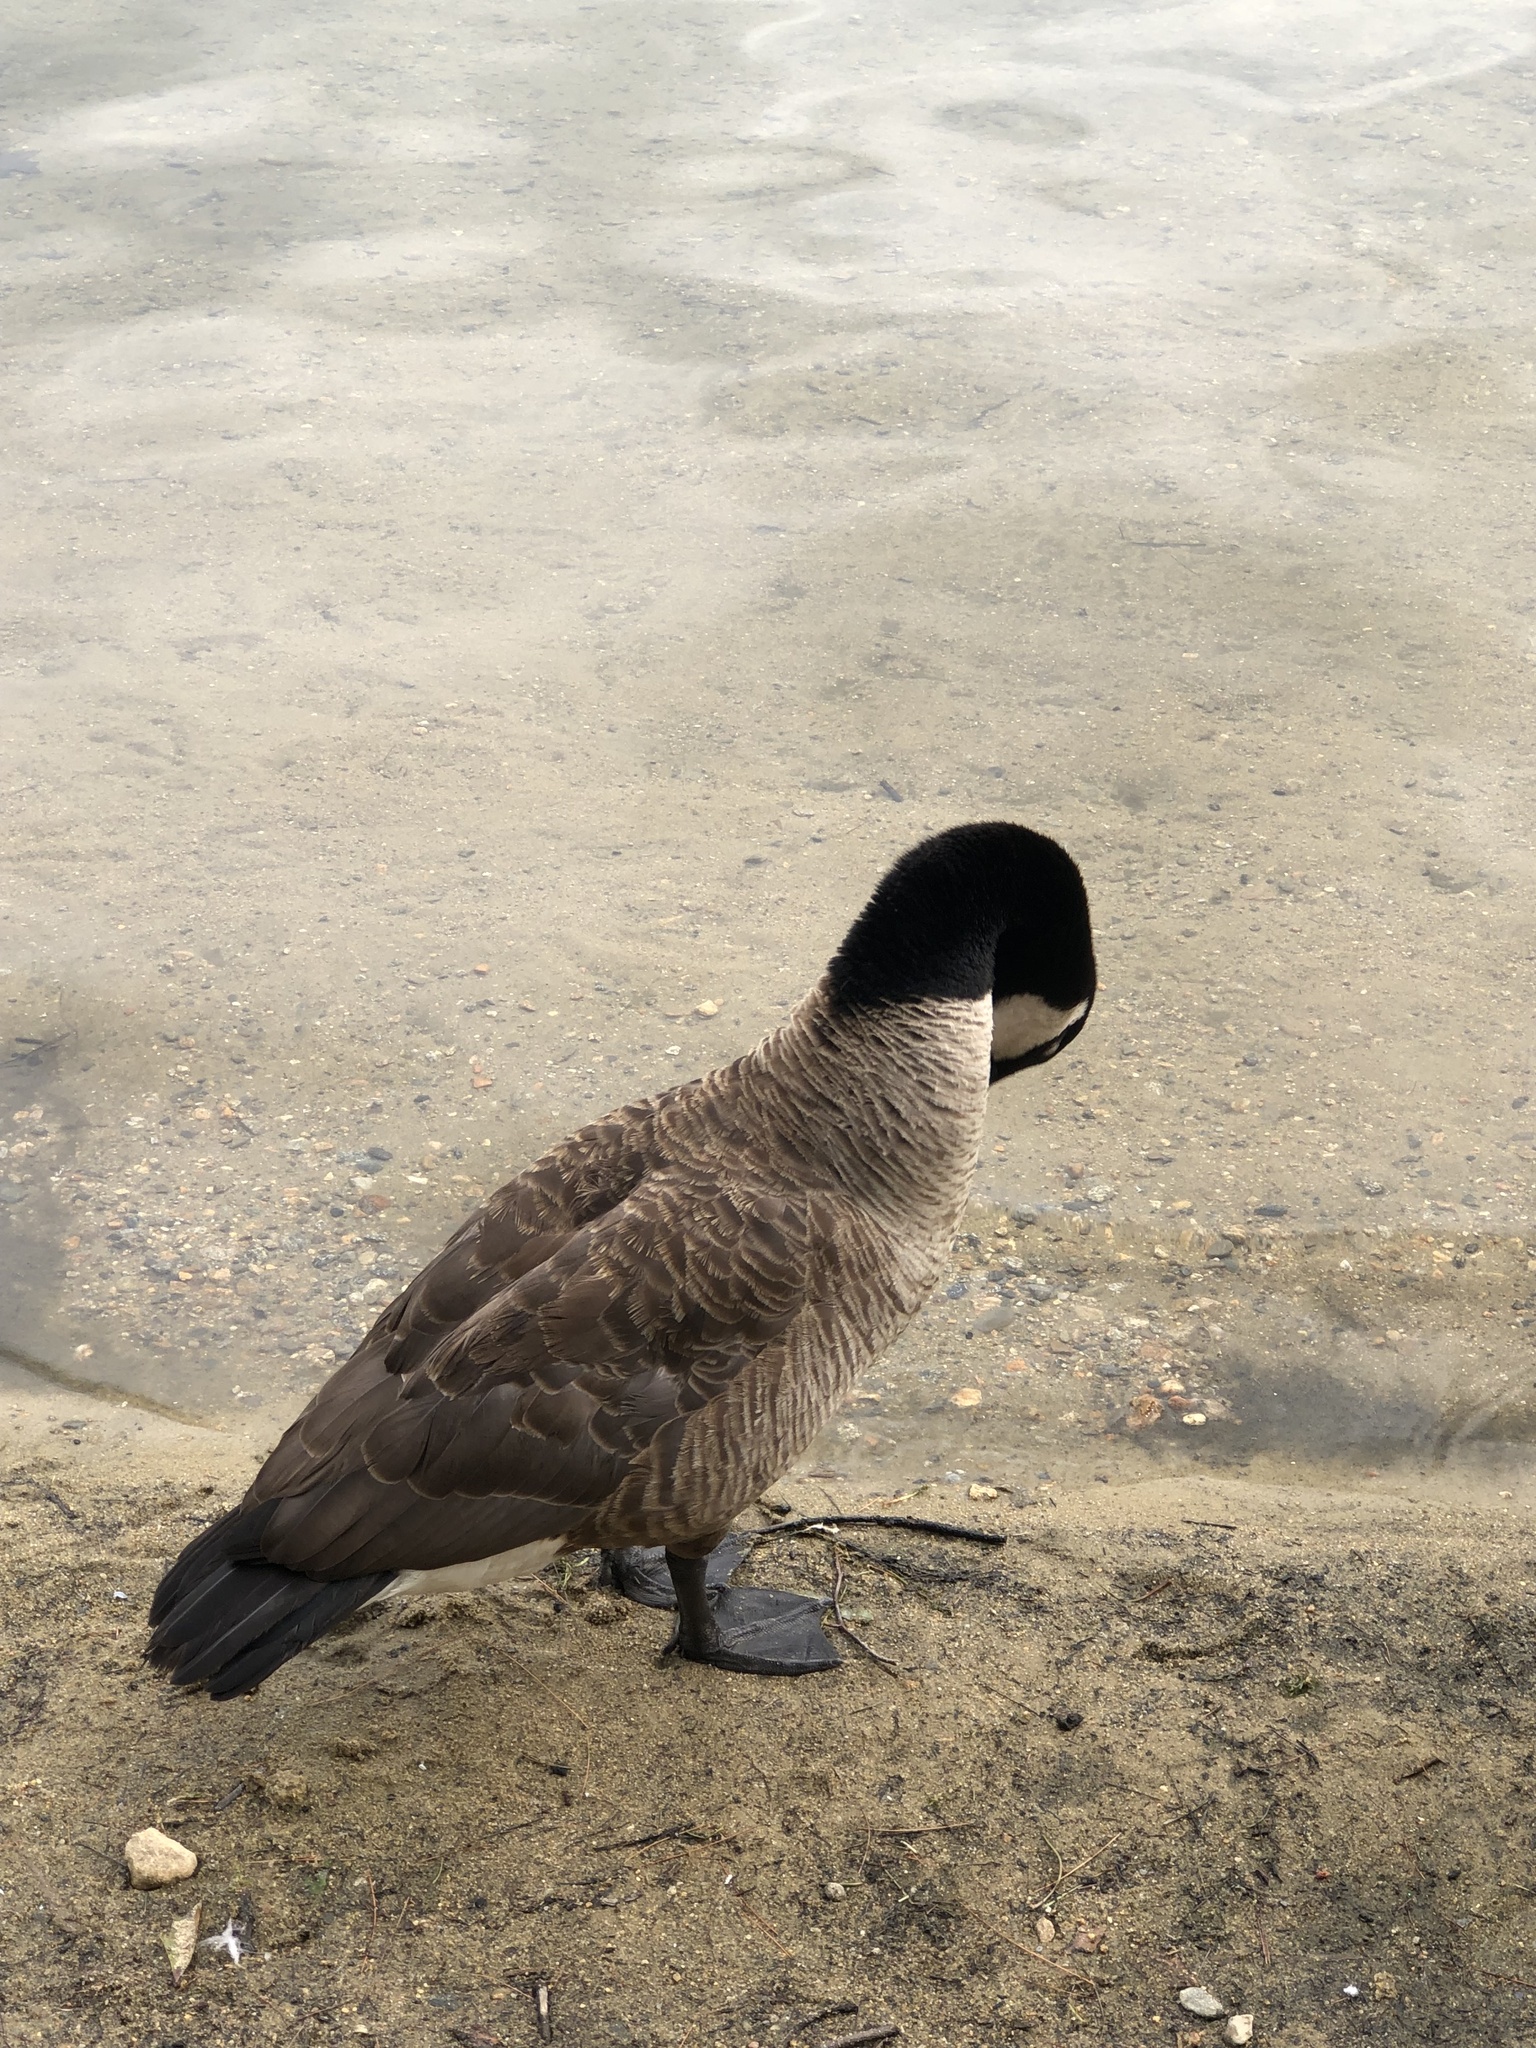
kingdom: Animalia
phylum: Chordata
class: Aves
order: Anseriformes
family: Anatidae
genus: Branta
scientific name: Branta canadensis
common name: Canada goose
